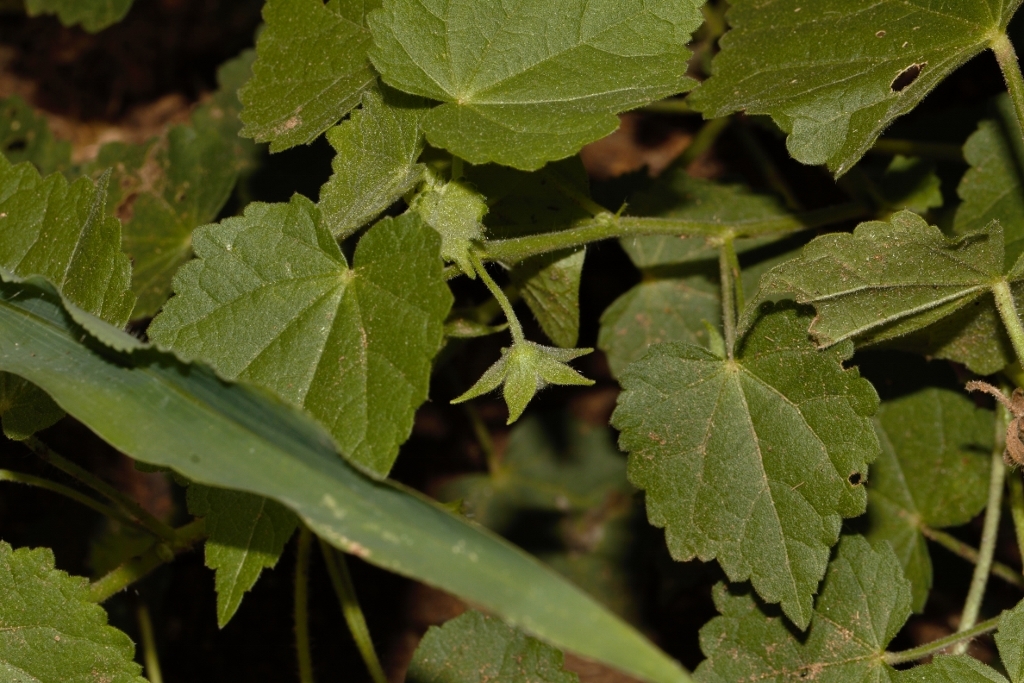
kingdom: Plantae
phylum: Tracheophyta
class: Magnoliopsida
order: Malvales
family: Malvaceae
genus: Pavonia
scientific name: Pavonia burchellii
